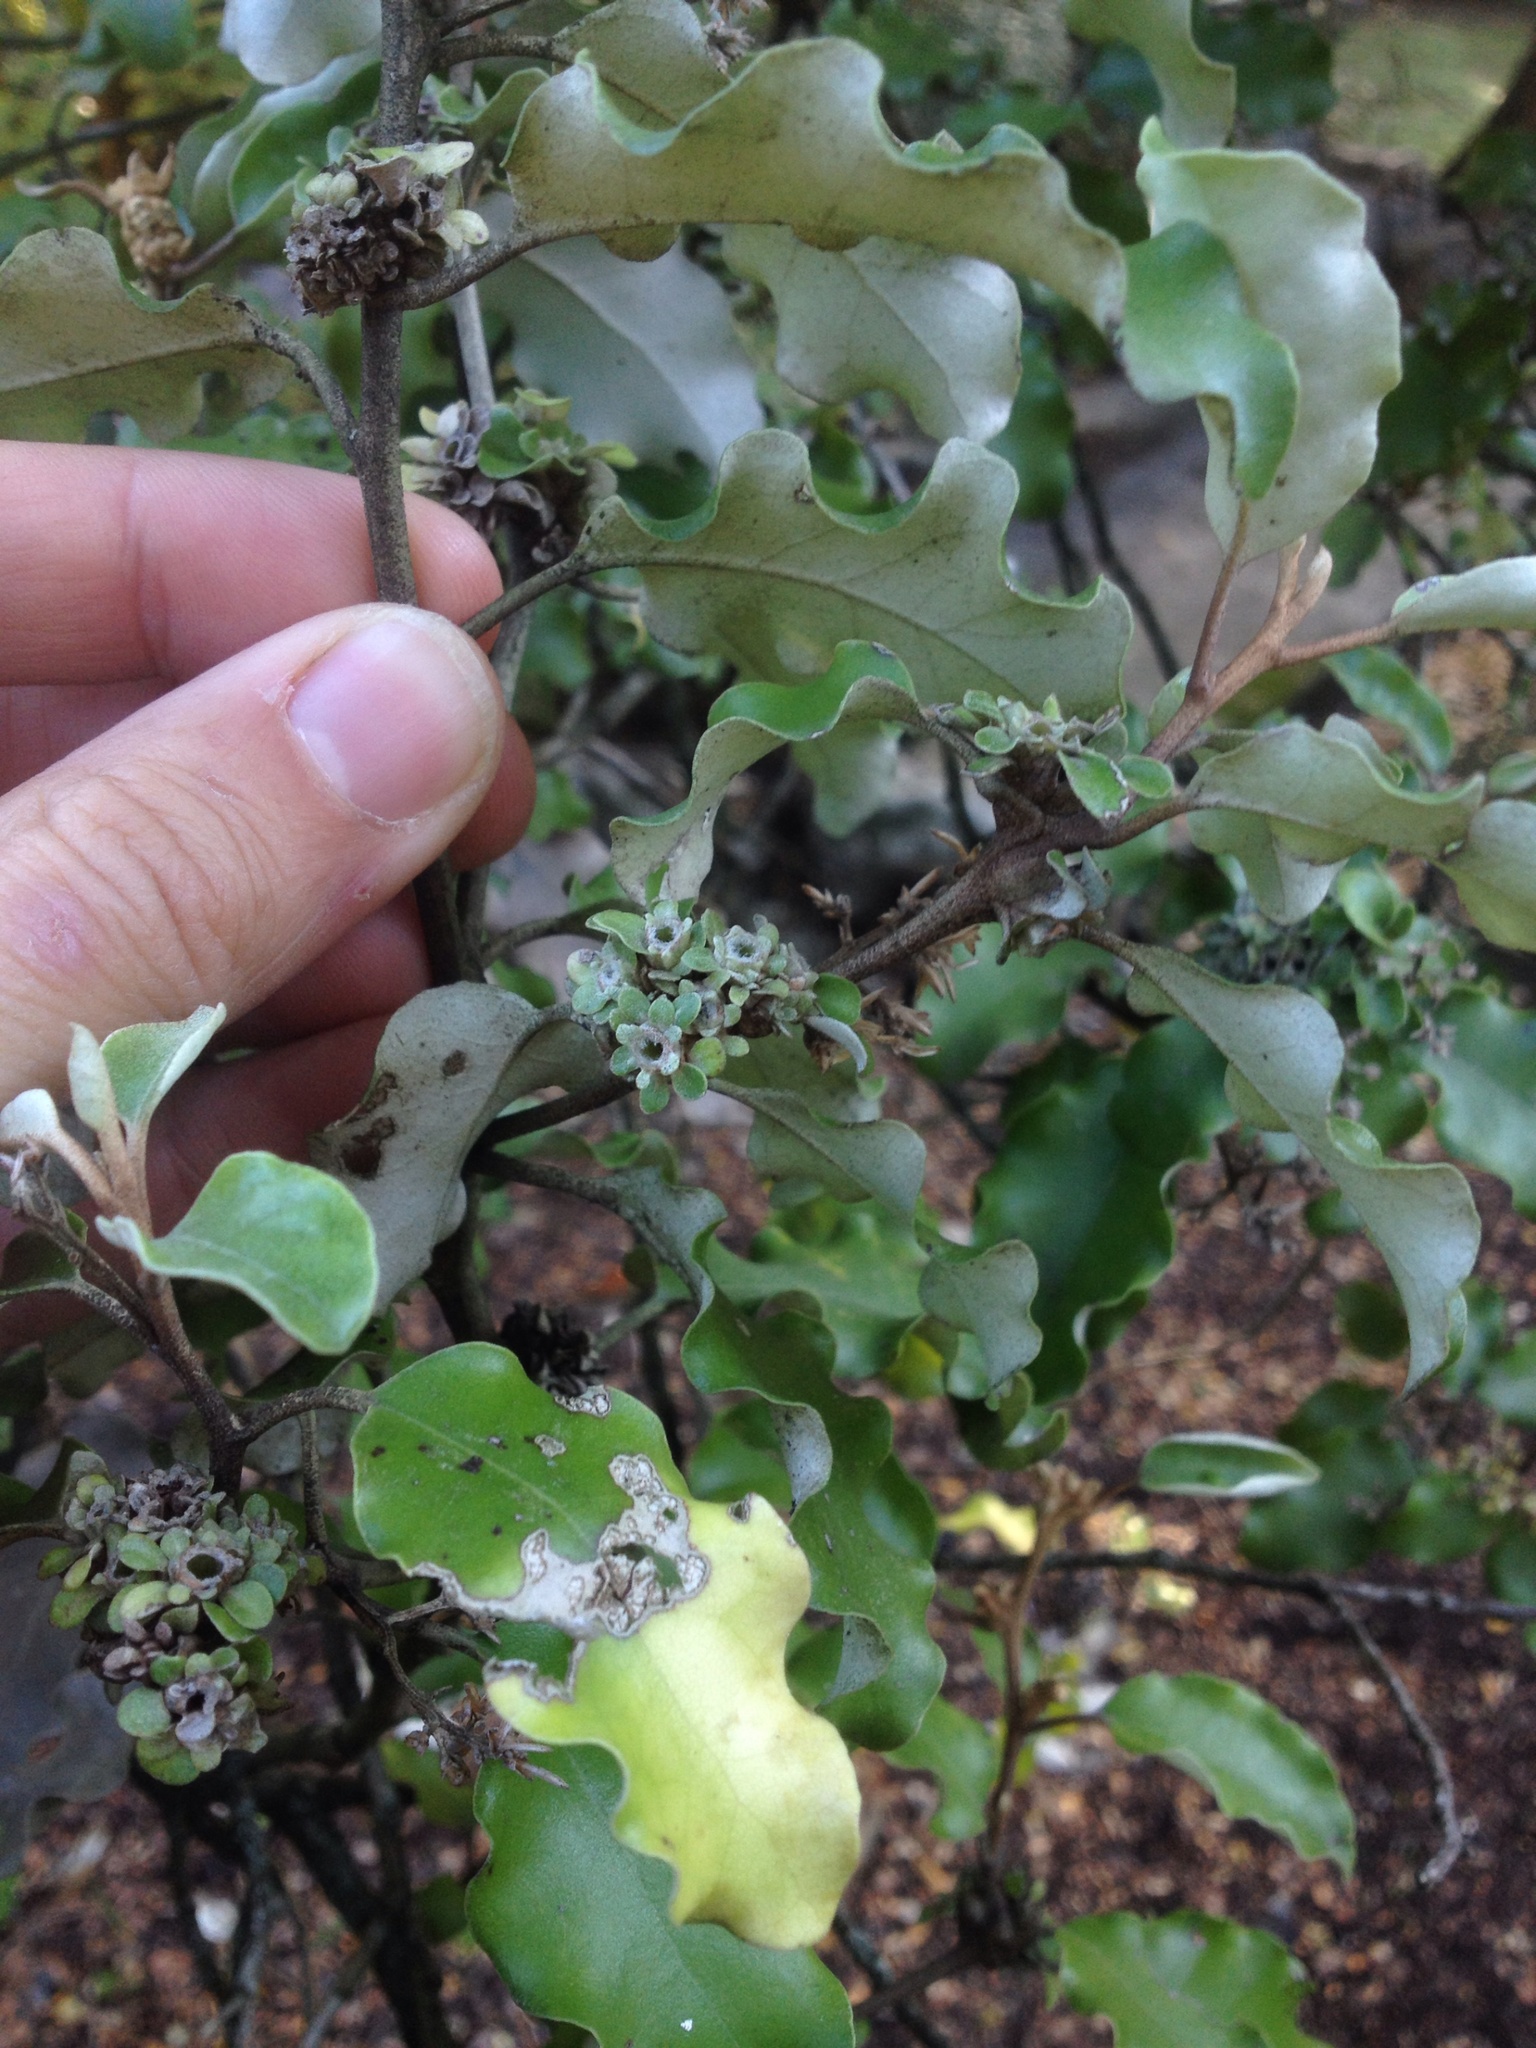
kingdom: Plantae
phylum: Tracheophyta
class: Magnoliopsida
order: Asterales
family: Asteraceae
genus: Olearia
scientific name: Olearia paniculata
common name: Akiraho
